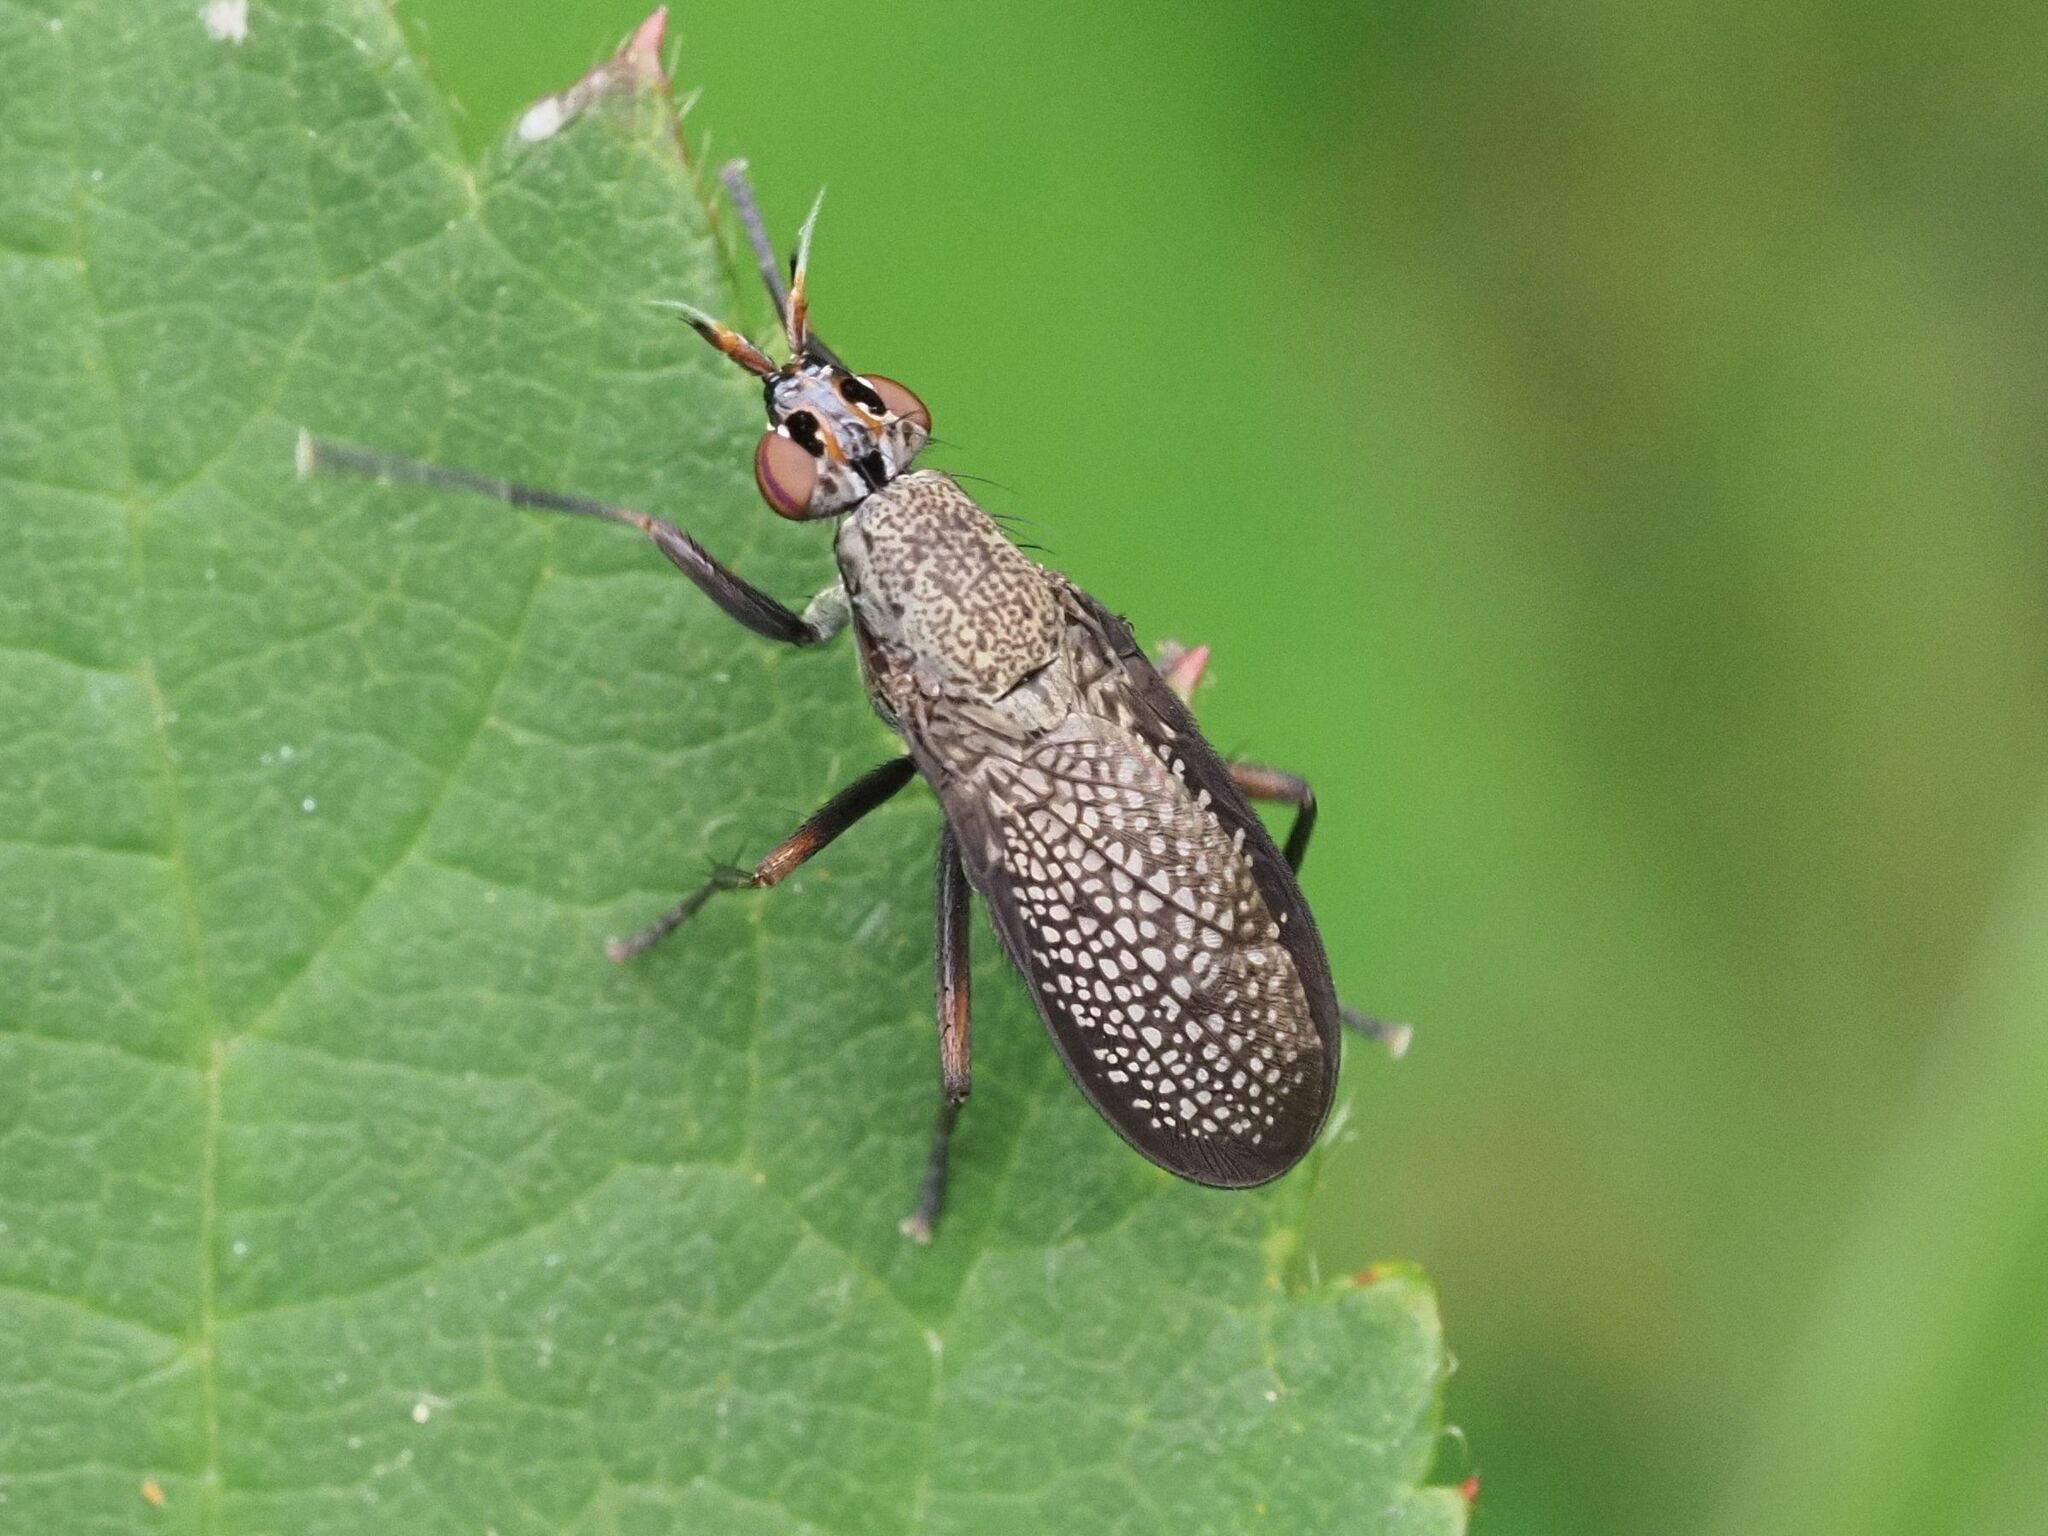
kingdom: Animalia
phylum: Arthropoda
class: Insecta
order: Diptera
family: Sciomyzidae
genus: Coremacera
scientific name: Coremacera marginata
